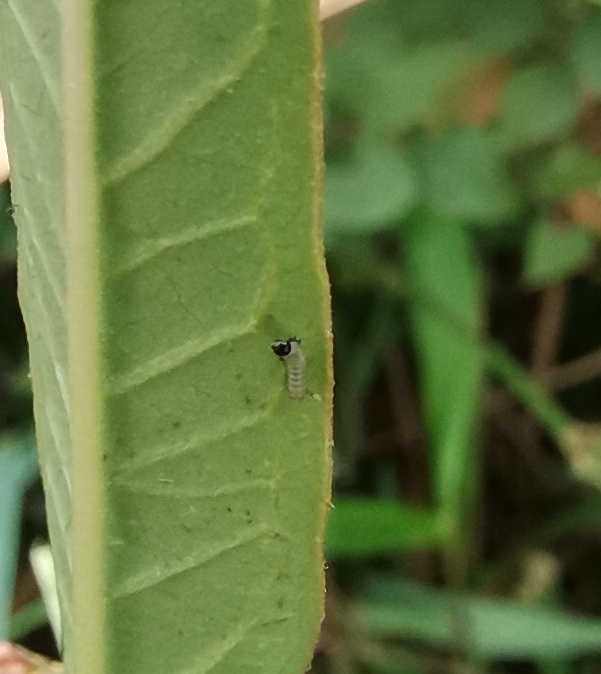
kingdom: Animalia
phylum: Arthropoda
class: Insecta
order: Lepidoptera
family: Nymphalidae
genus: Danaus
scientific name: Danaus plexippus
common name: Monarch
